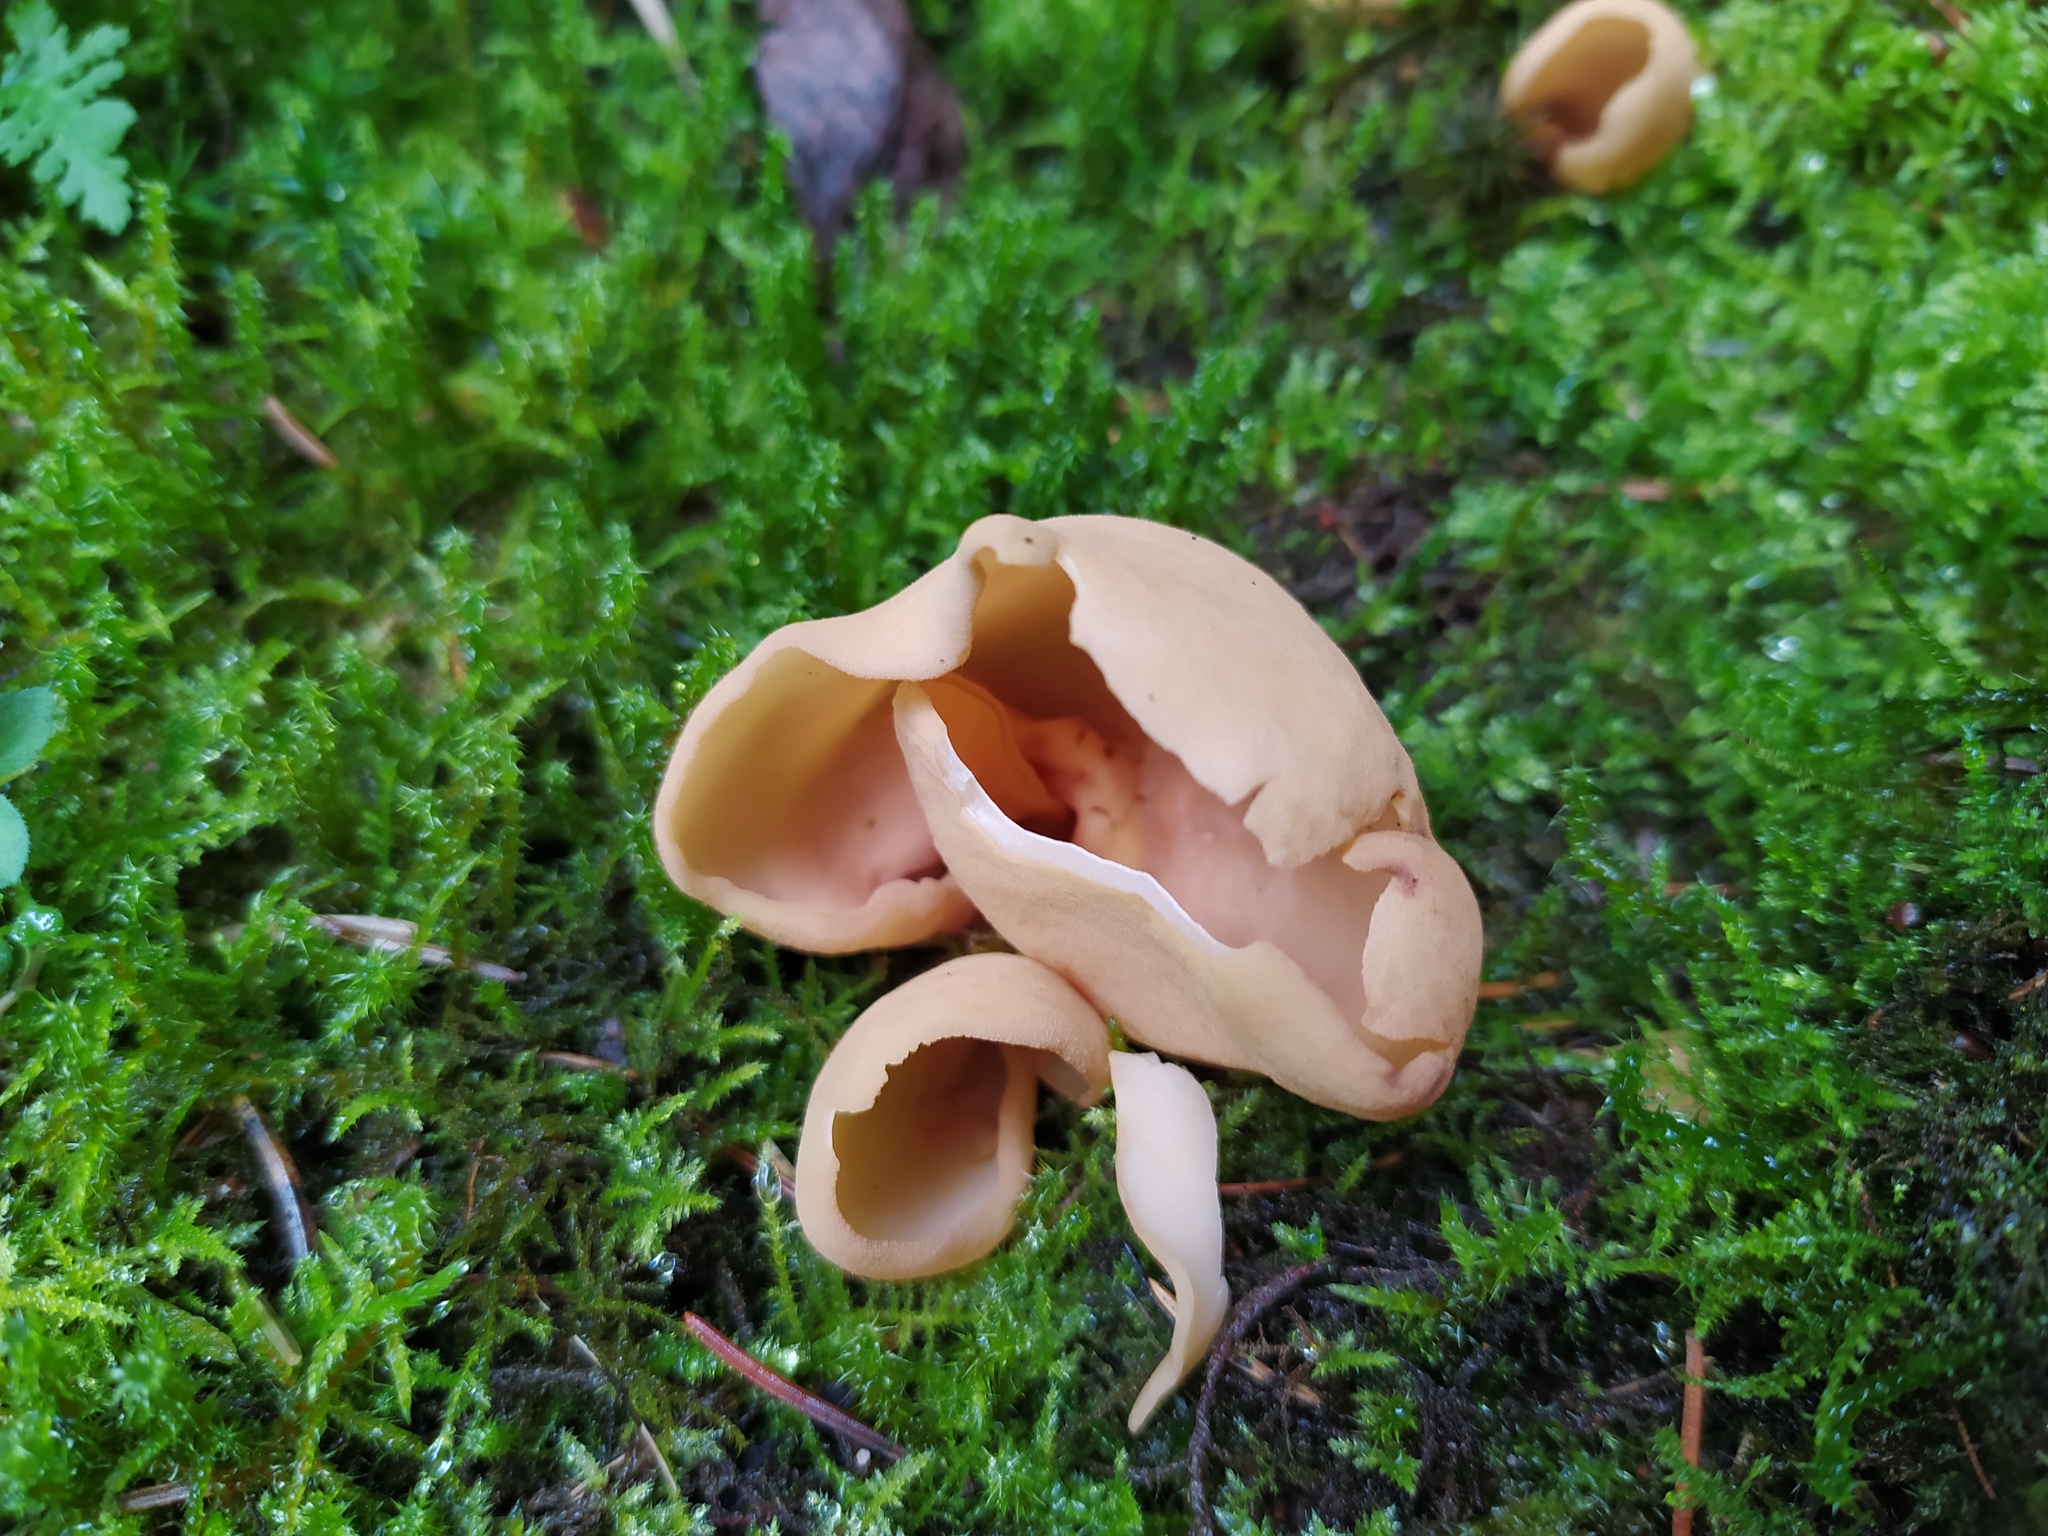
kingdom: Fungi
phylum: Ascomycota
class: Pezizomycetes
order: Pezizales
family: Otideaceae
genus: Otidea
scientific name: Otidea onotica
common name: Hare's ear
